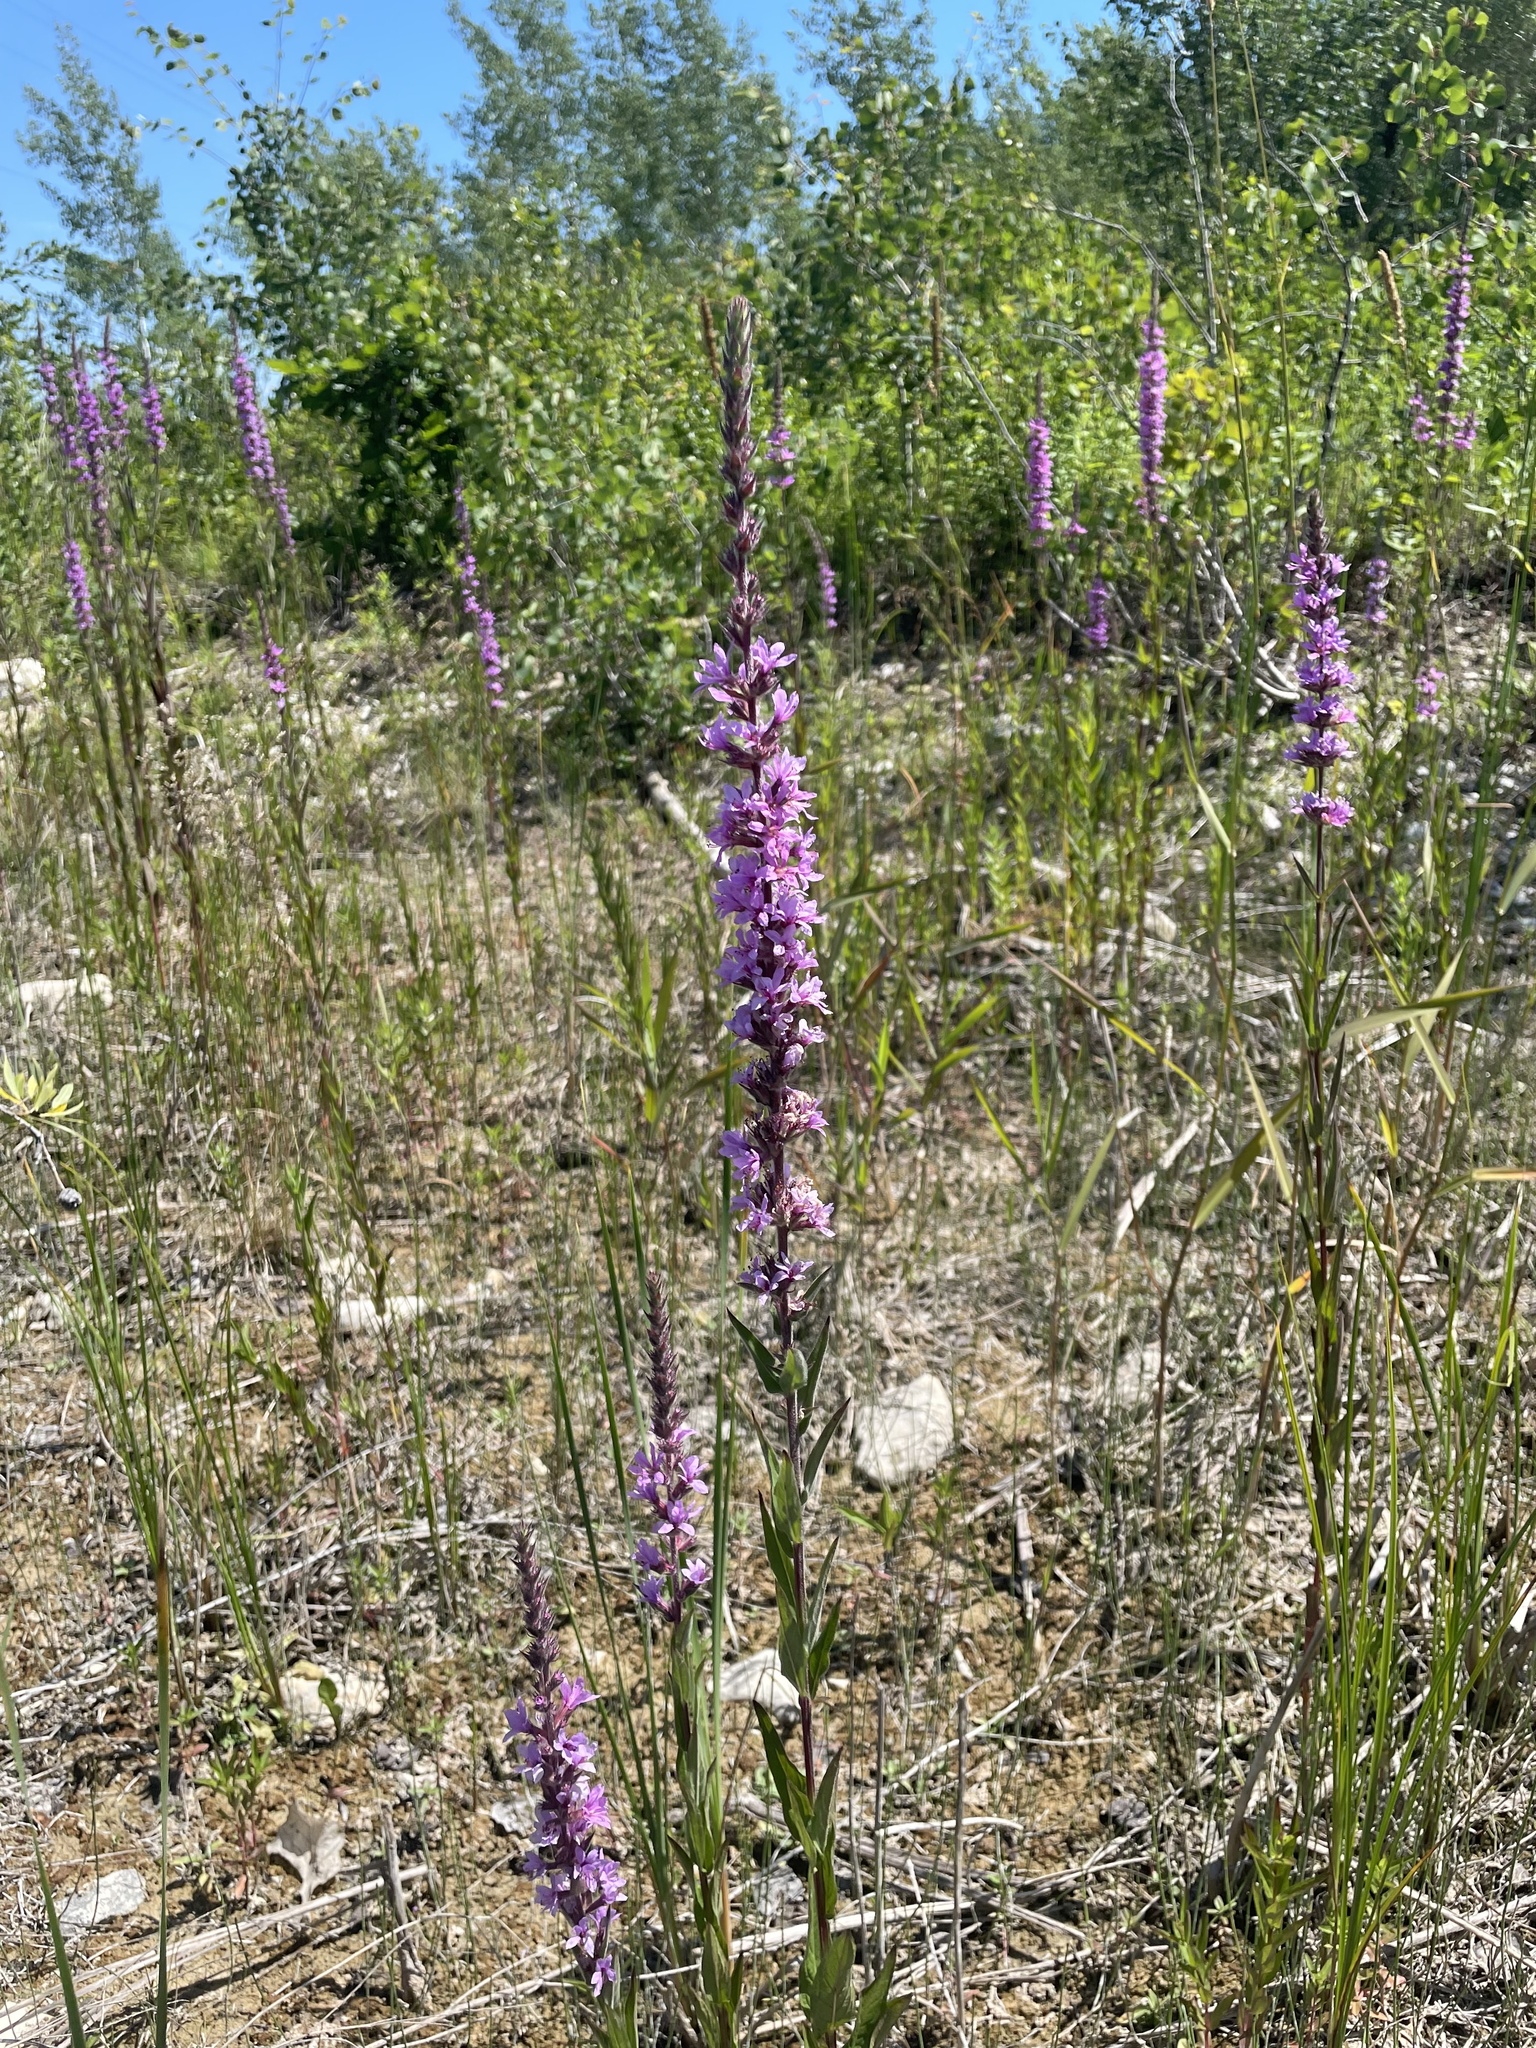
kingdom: Plantae
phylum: Tracheophyta
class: Magnoliopsida
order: Myrtales
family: Lythraceae
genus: Lythrum
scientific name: Lythrum salicaria
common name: Purple loosestrife
